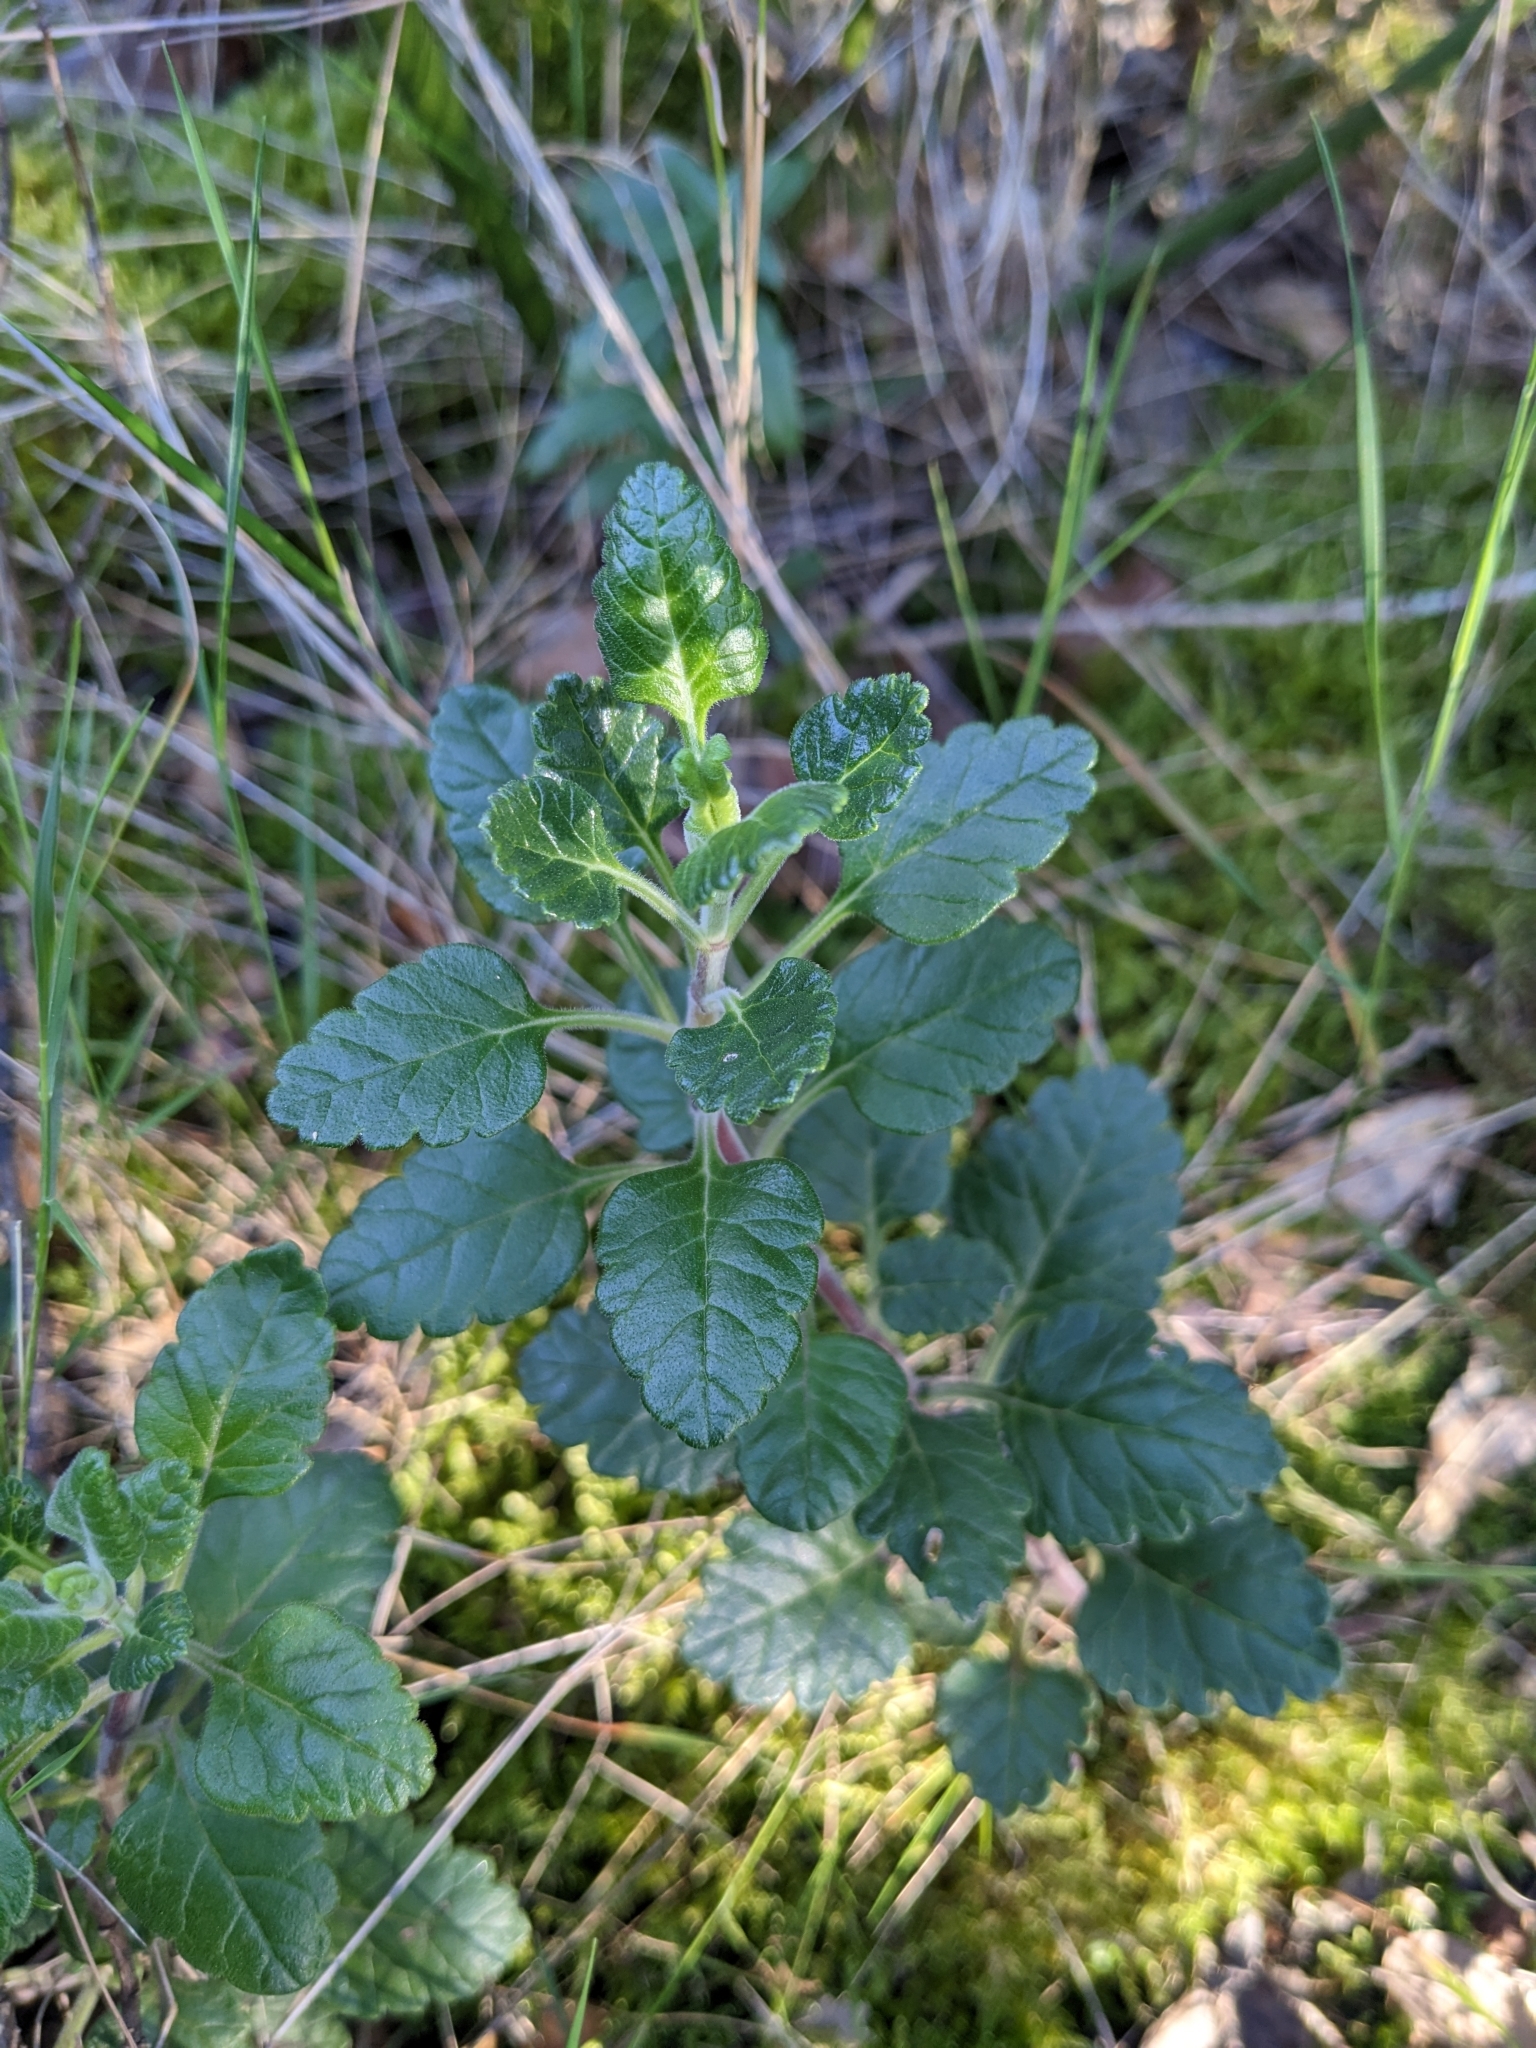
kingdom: Plantae
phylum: Tracheophyta
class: Magnoliopsida
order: Lamiales
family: Lamiaceae
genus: Teucrium
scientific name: Teucrium flavum
